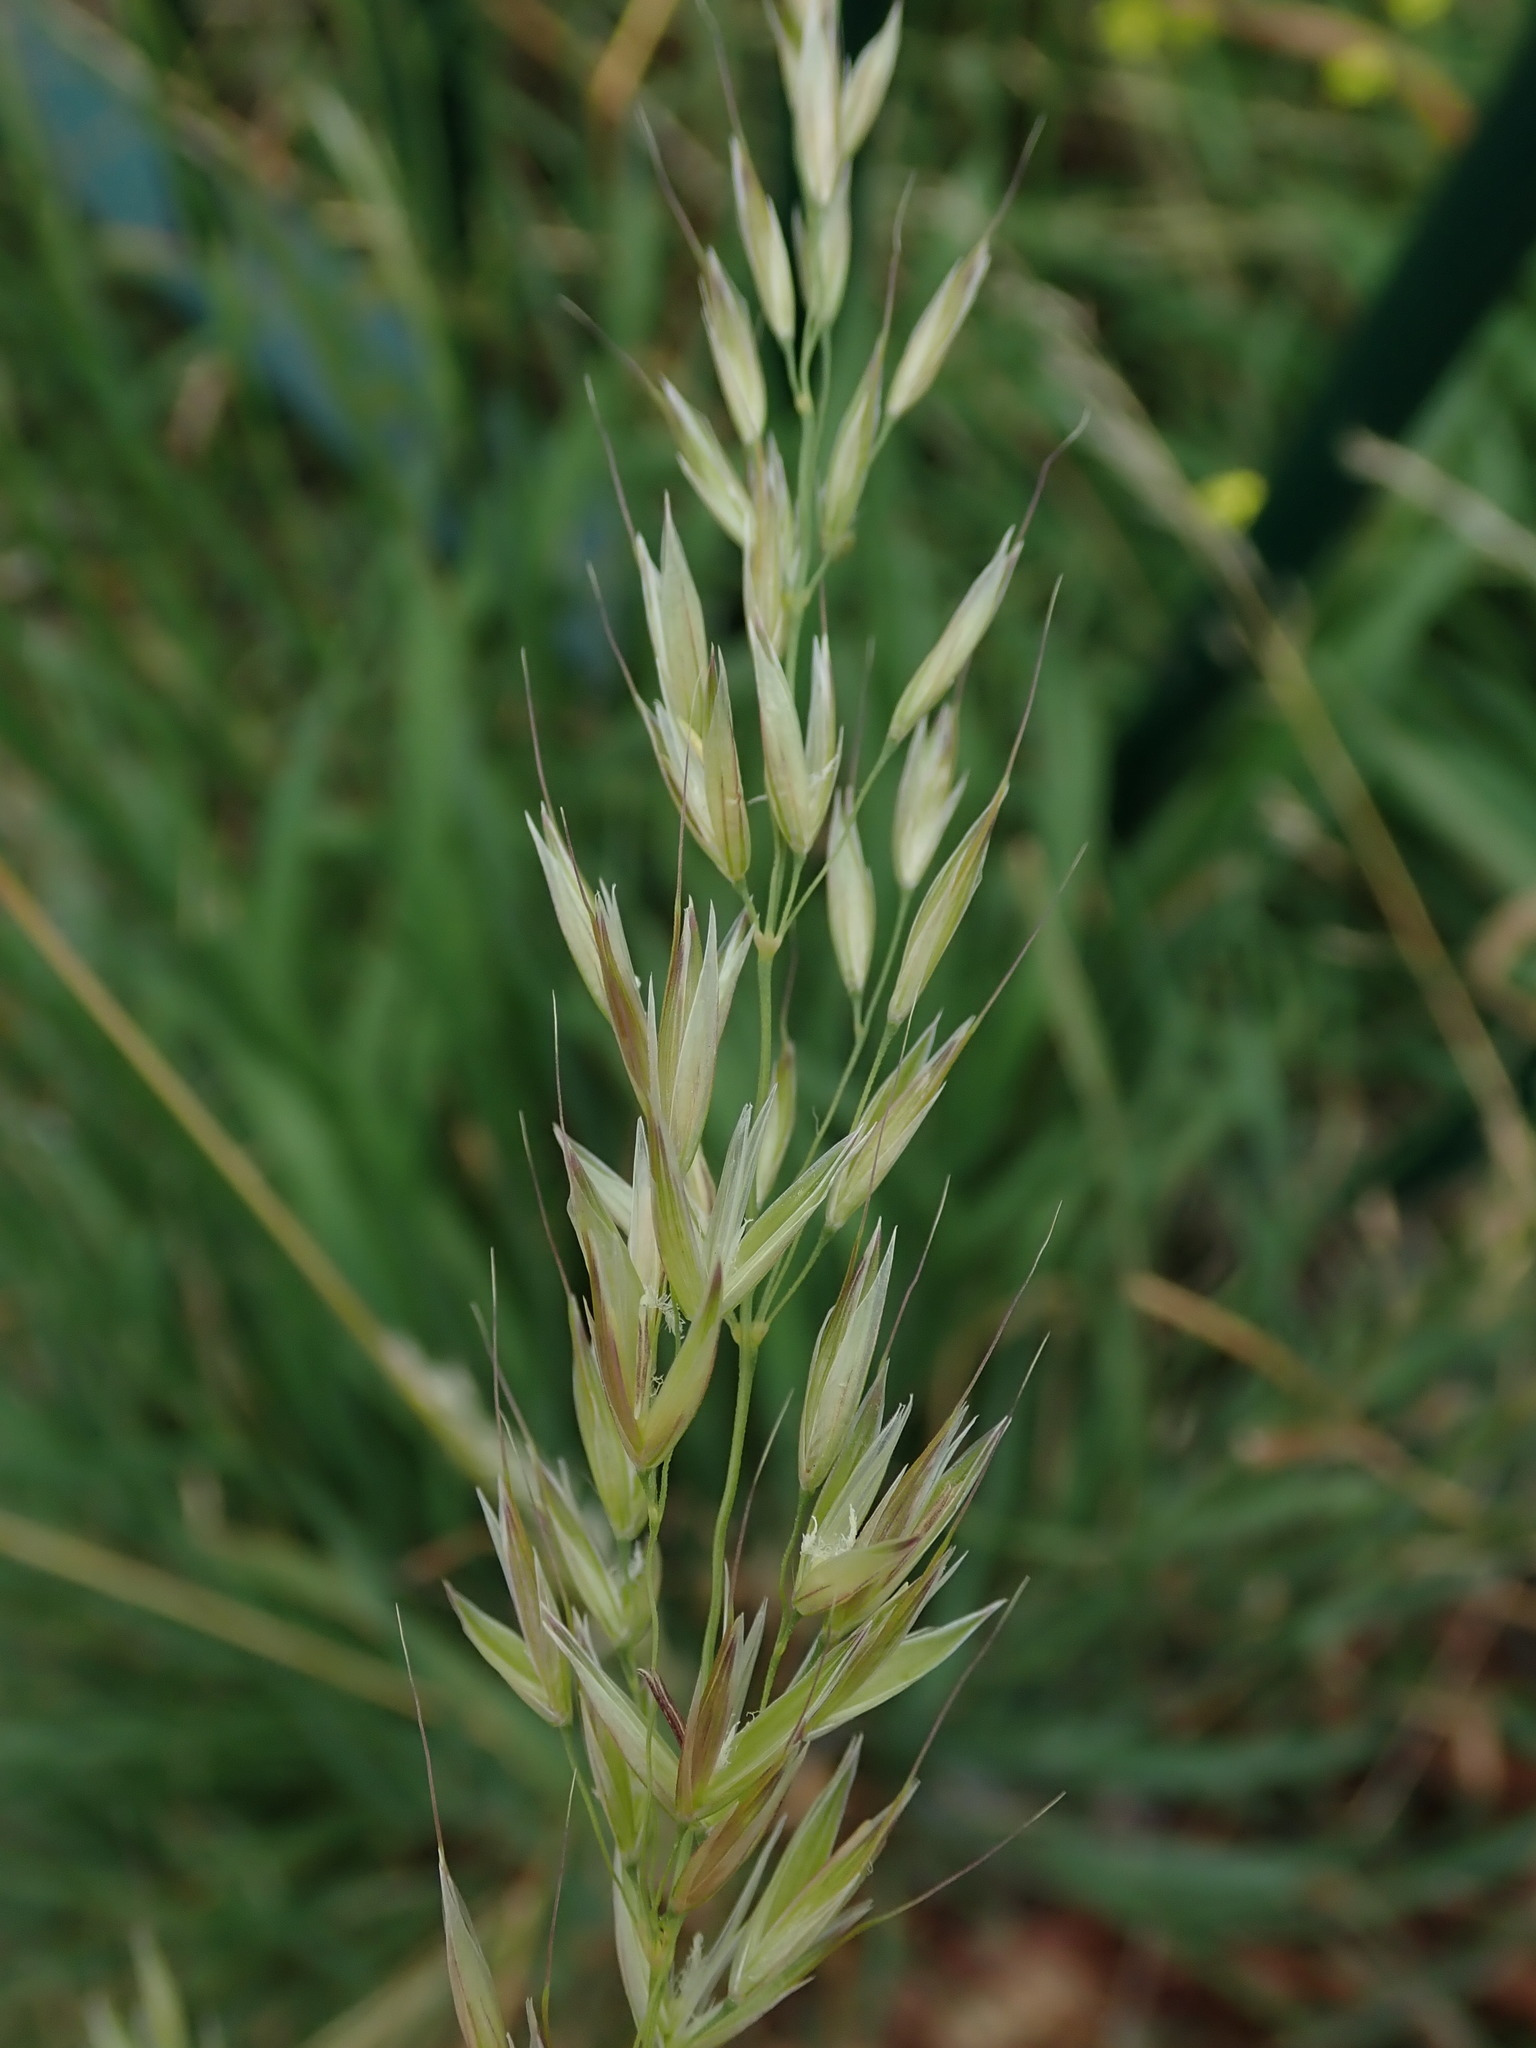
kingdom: Plantae
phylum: Tracheophyta
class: Liliopsida
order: Poales
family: Poaceae
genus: Arrhenatherum
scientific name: Arrhenatherum elatius
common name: Tall oatgrass
